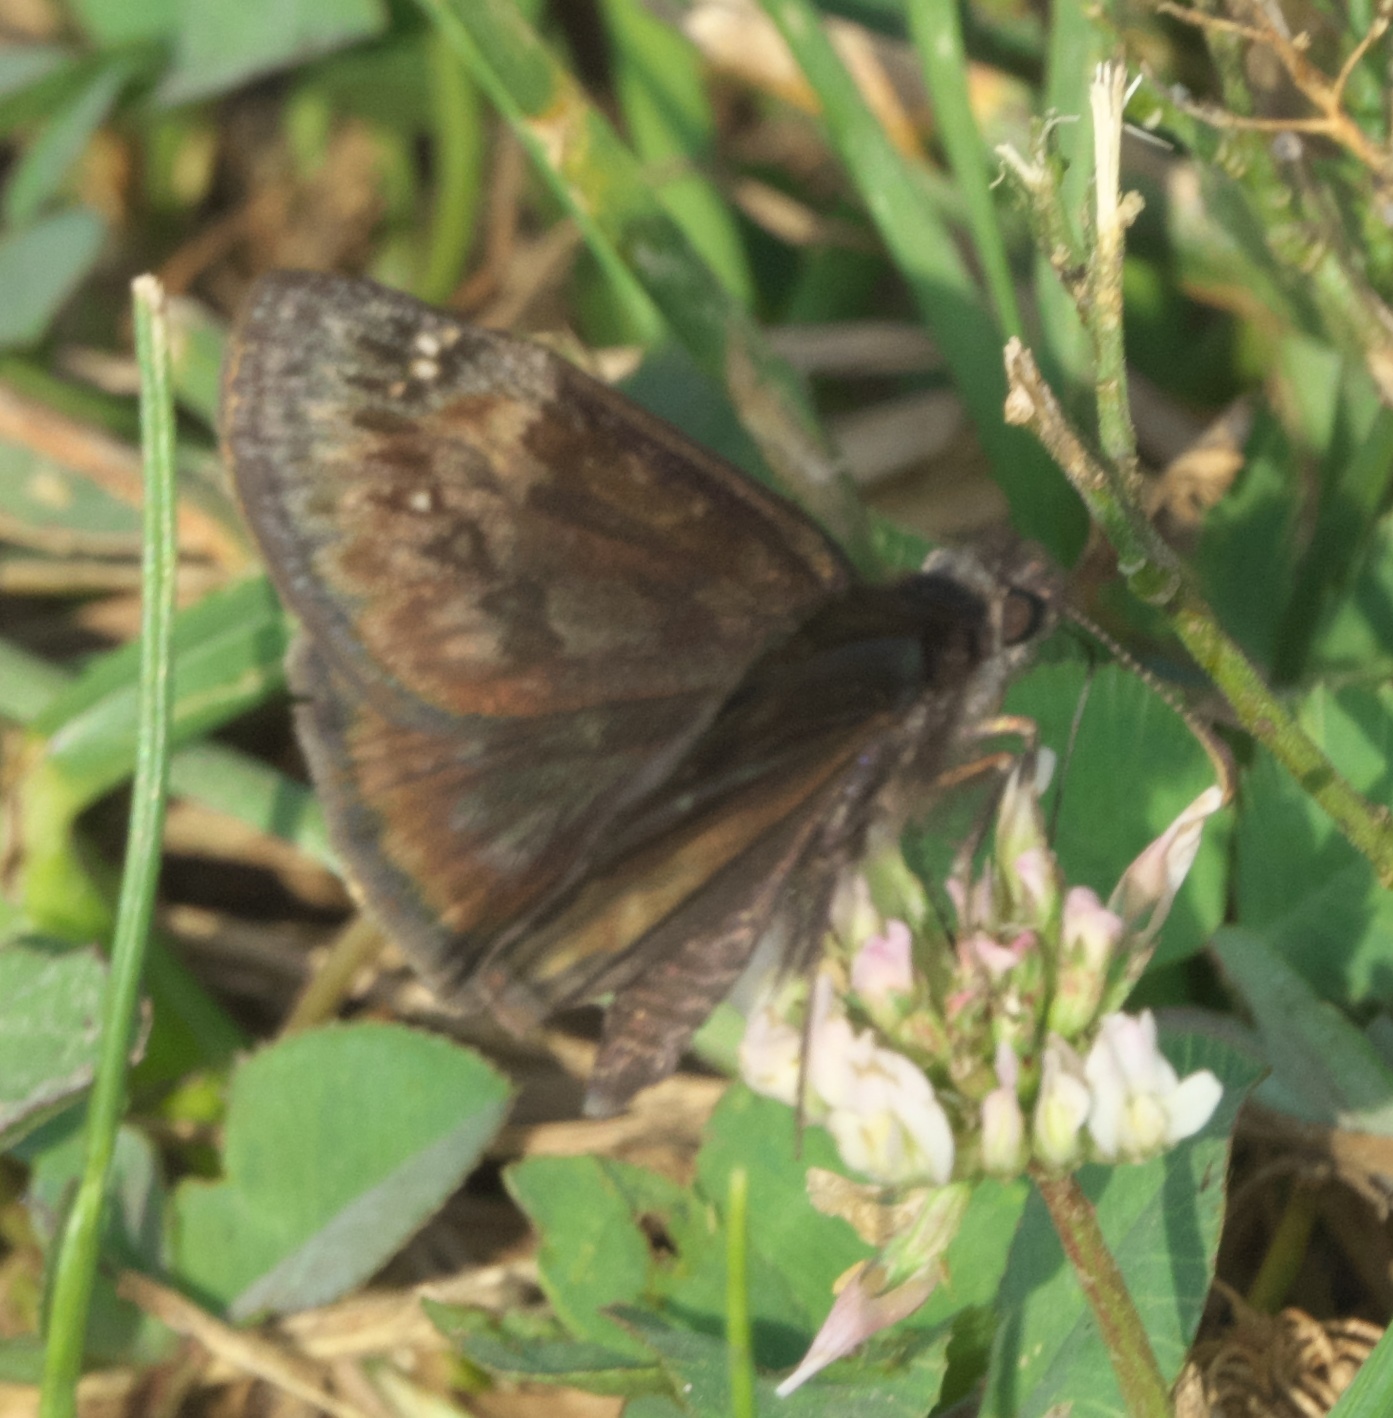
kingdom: Animalia
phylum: Arthropoda
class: Insecta
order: Lepidoptera
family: Hesperiidae
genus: Erynnis
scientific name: Erynnis baptisiae
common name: Wild indigo duskywing
